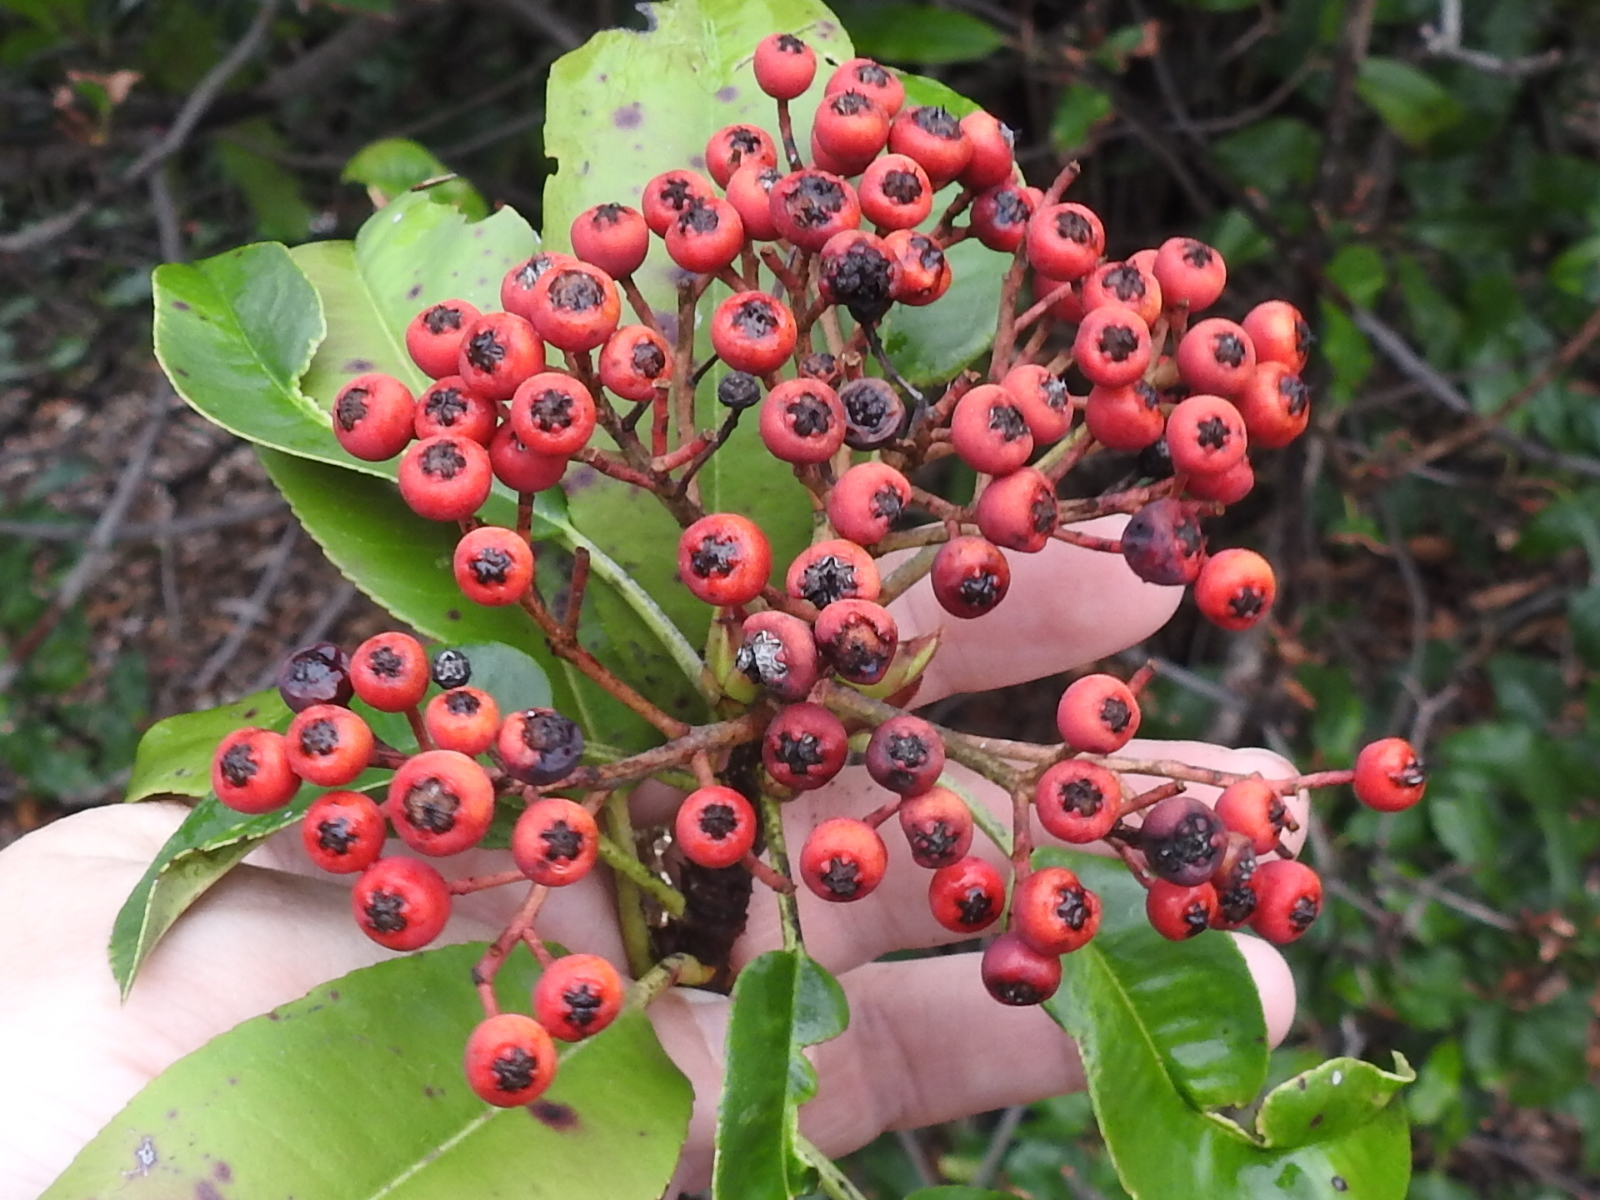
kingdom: Plantae
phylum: Tracheophyta
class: Magnoliopsida
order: Rosales
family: Rosaceae
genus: Photinia
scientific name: Photinia serratifolia
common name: Taiwanese photinia
